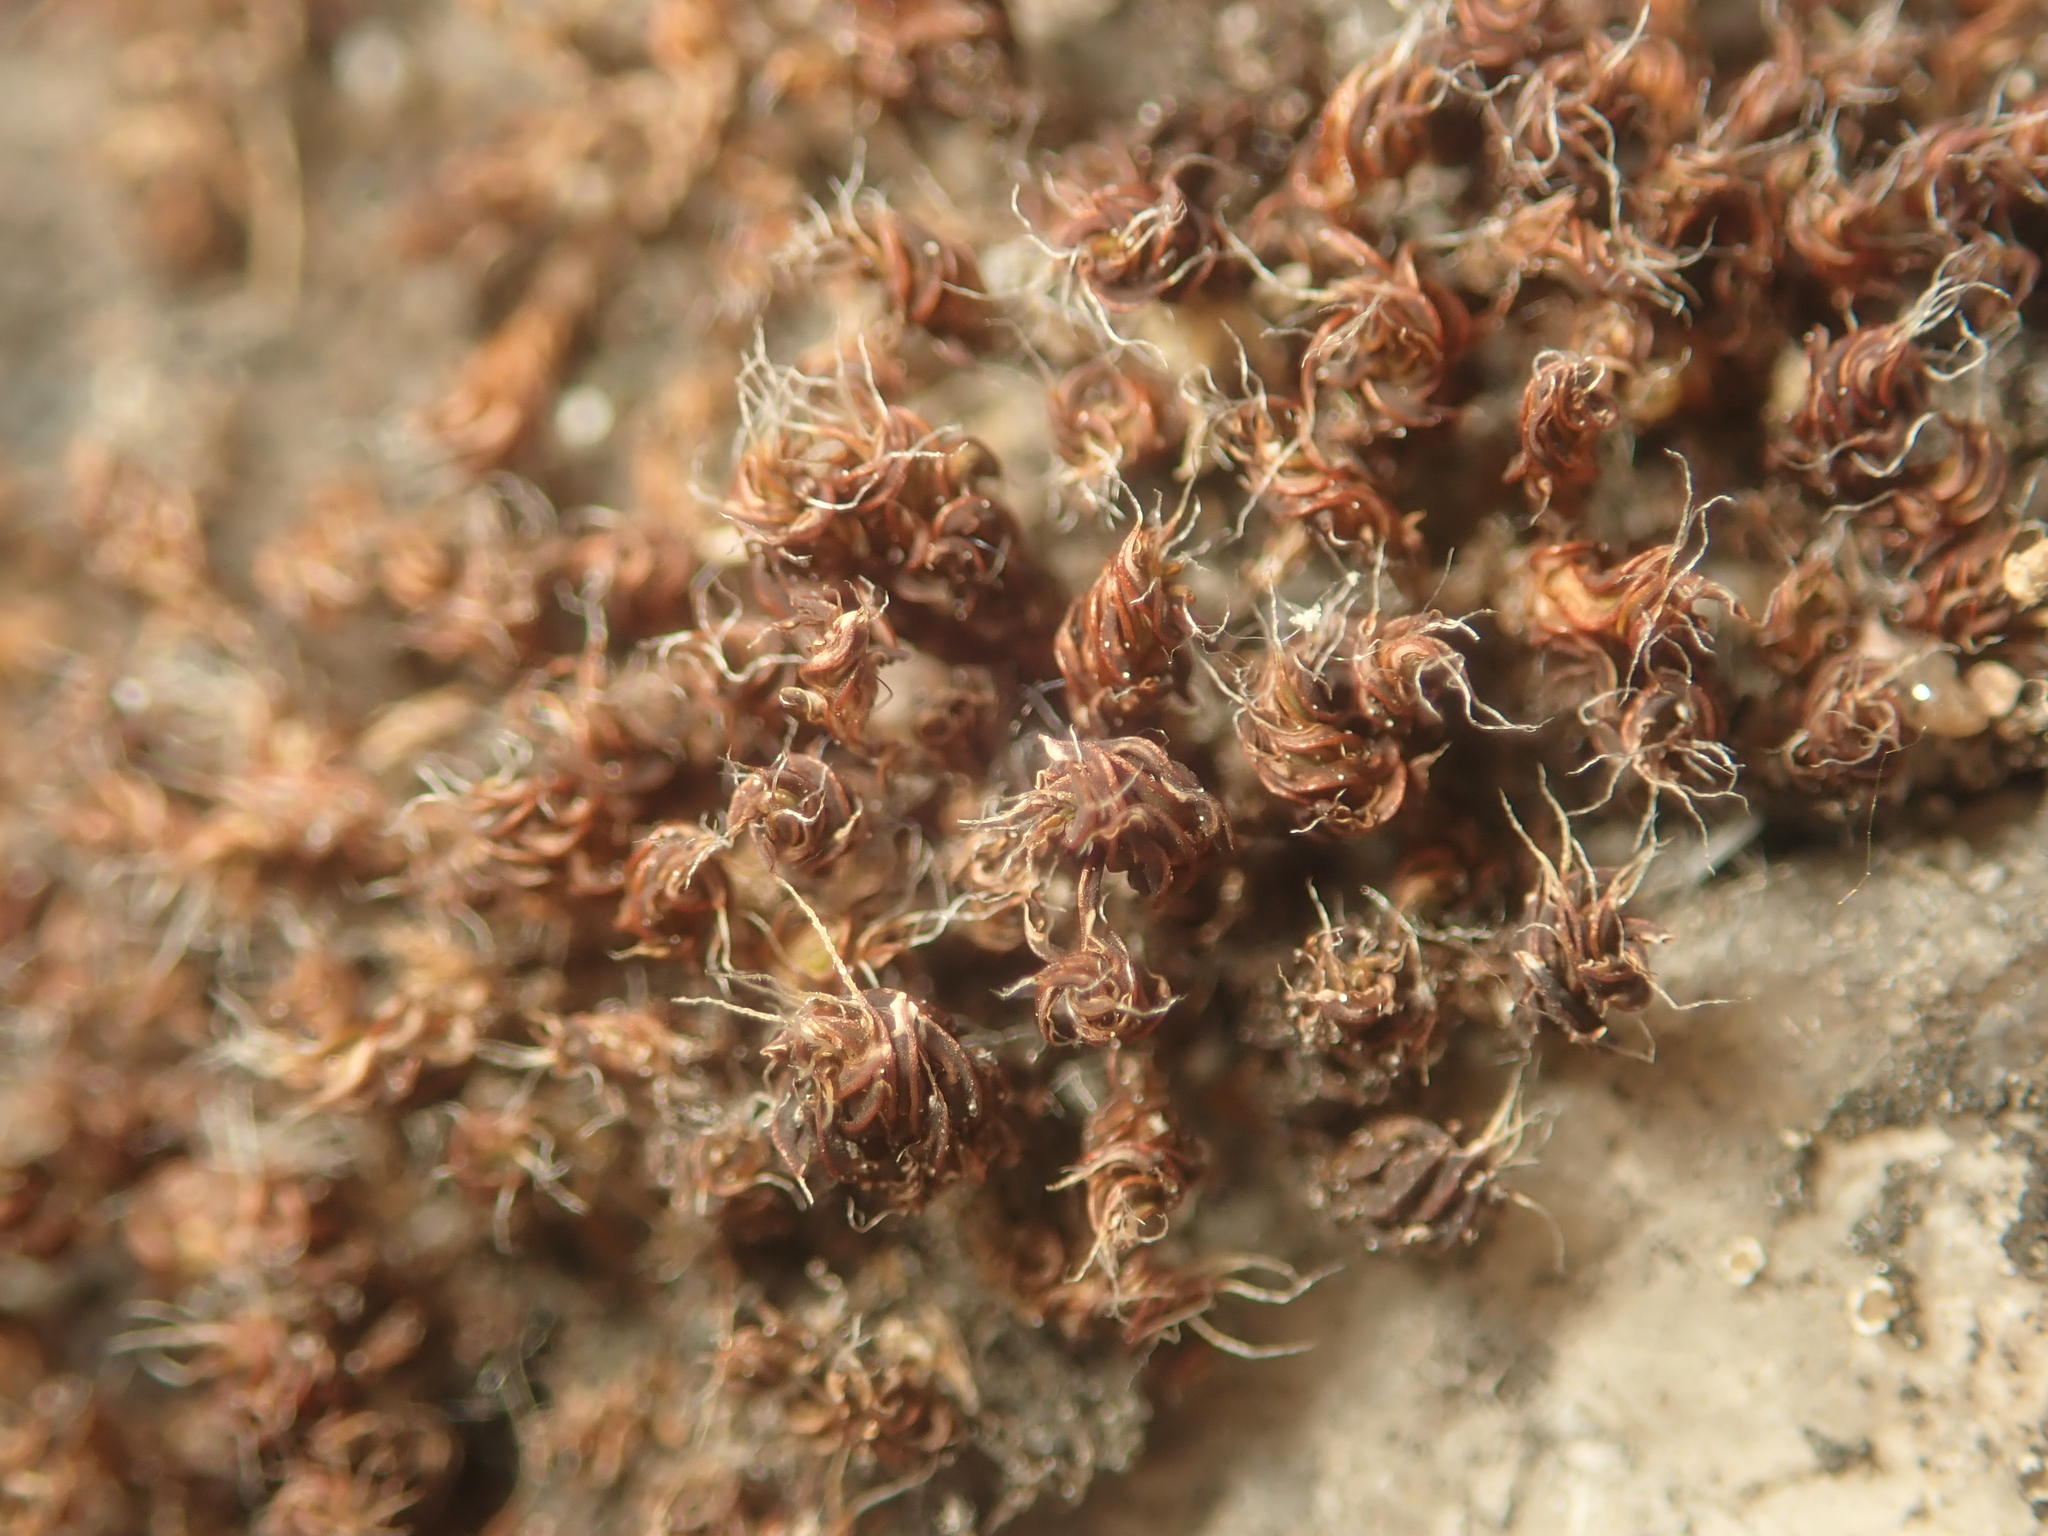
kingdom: Plantae
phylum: Bryophyta
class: Bryopsida
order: Pottiales
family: Pottiaceae
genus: Syntrichia
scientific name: Syntrichia ruralis
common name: Sidewalk screw moss
